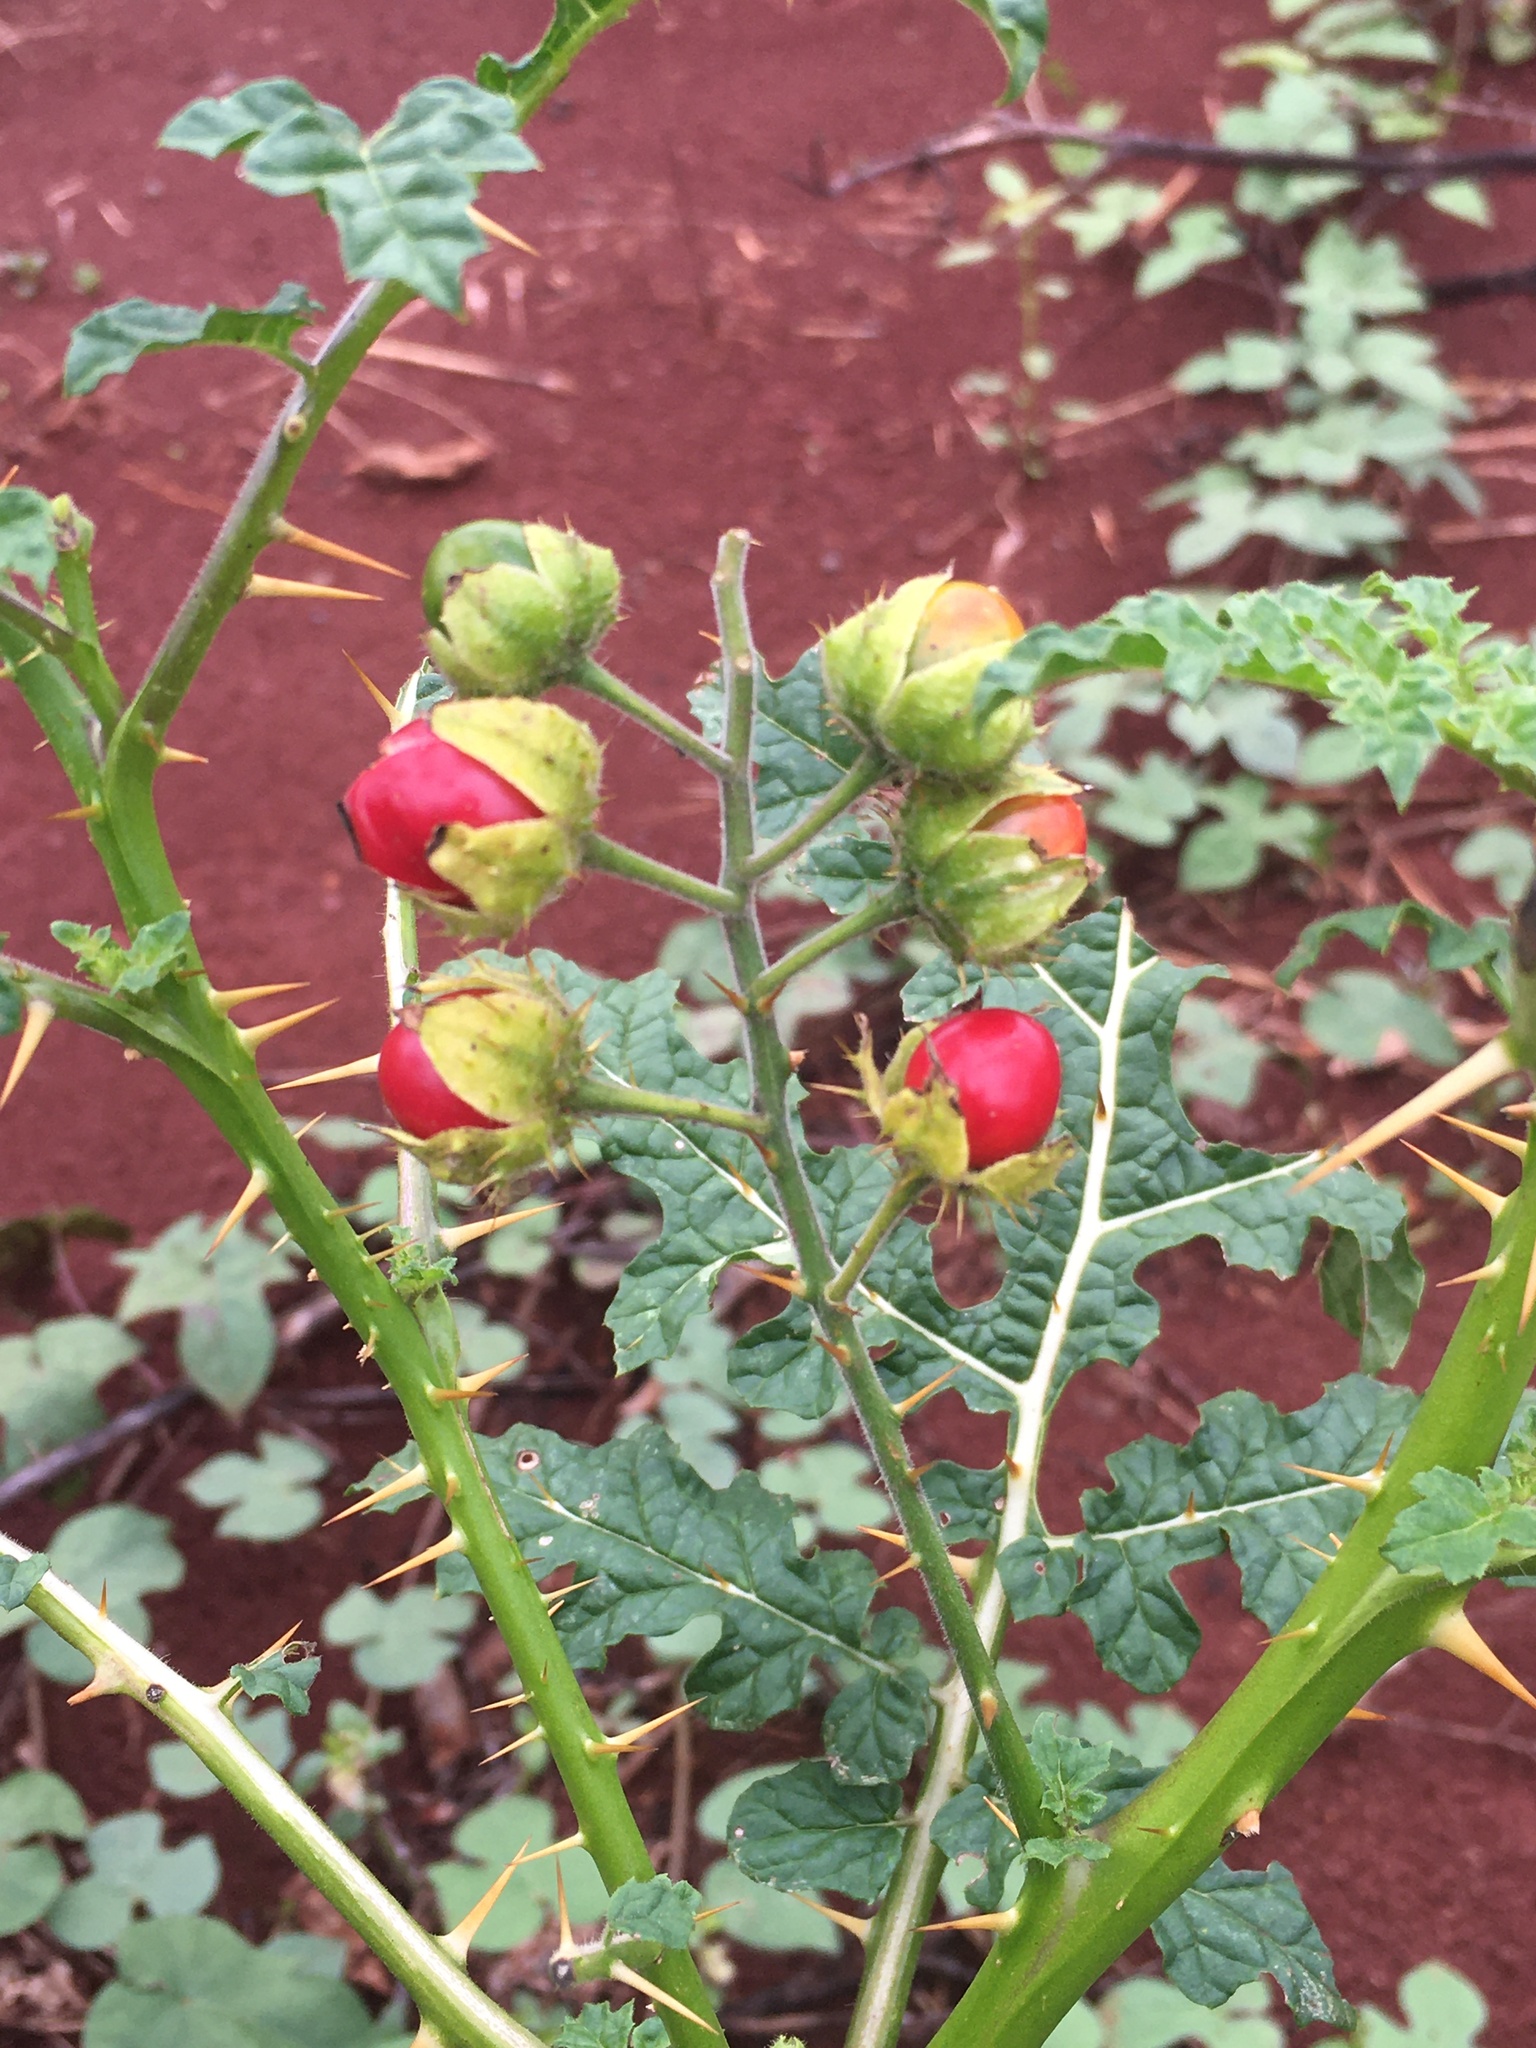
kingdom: Plantae
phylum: Tracheophyta
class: Magnoliopsida
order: Solanales
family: Solanaceae
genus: Solanum
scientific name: Solanum sisymbriifolium
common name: Red buffalo-bur
